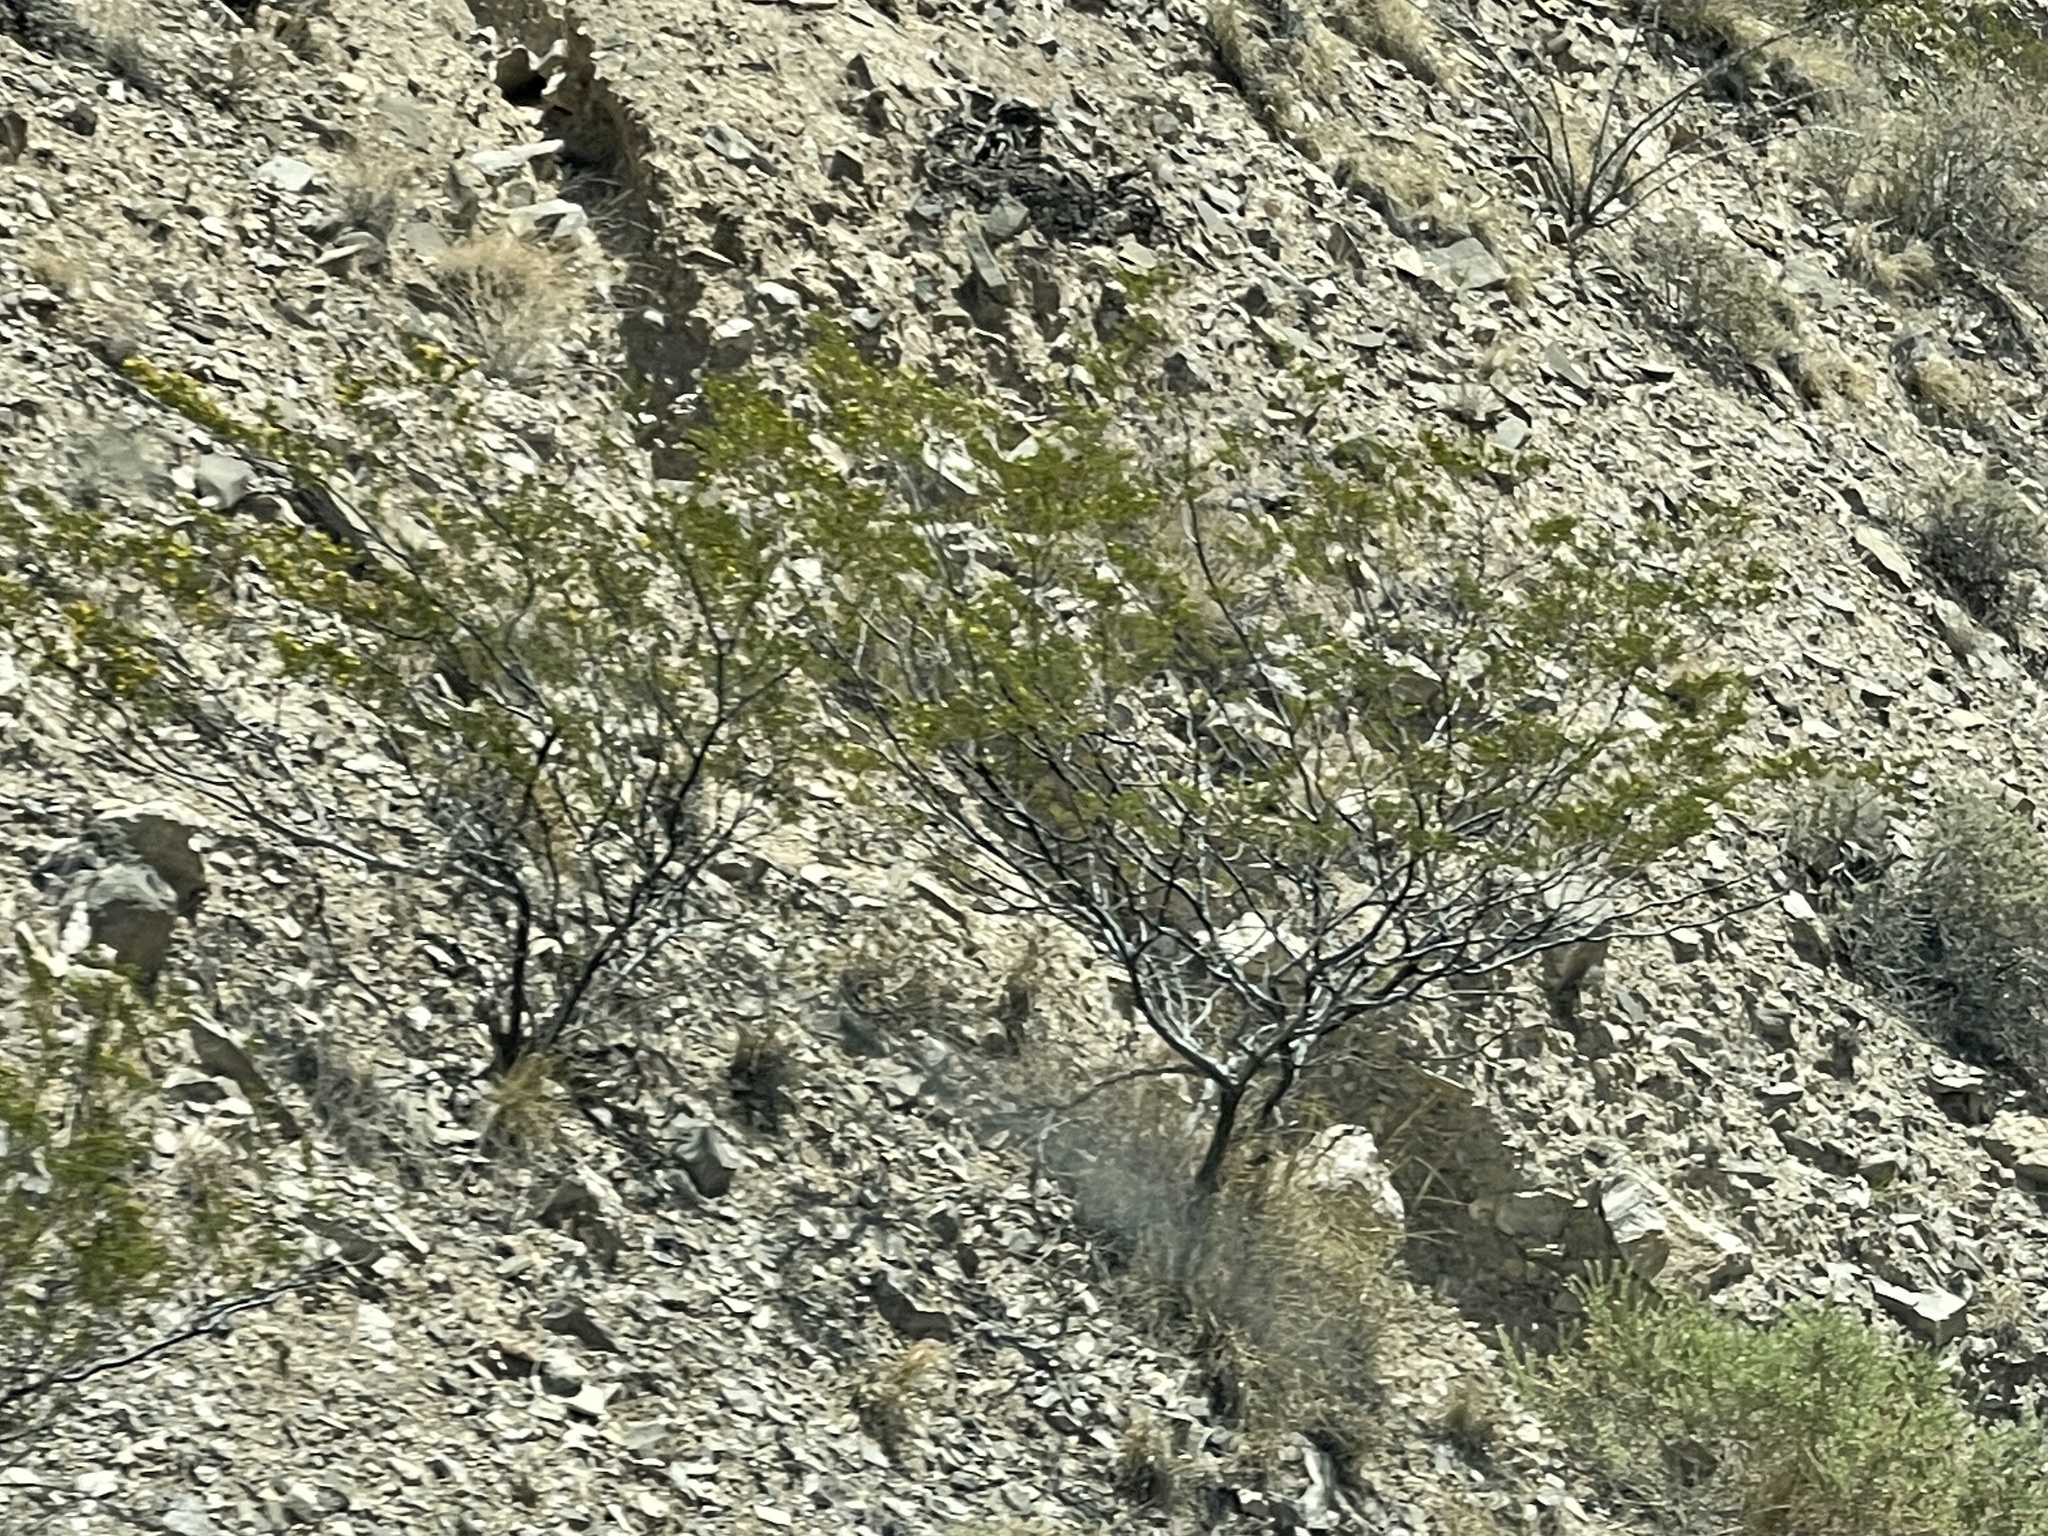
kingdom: Plantae
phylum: Tracheophyta
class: Magnoliopsida
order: Zygophyllales
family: Zygophyllaceae
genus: Larrea
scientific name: Larrea tridentata
